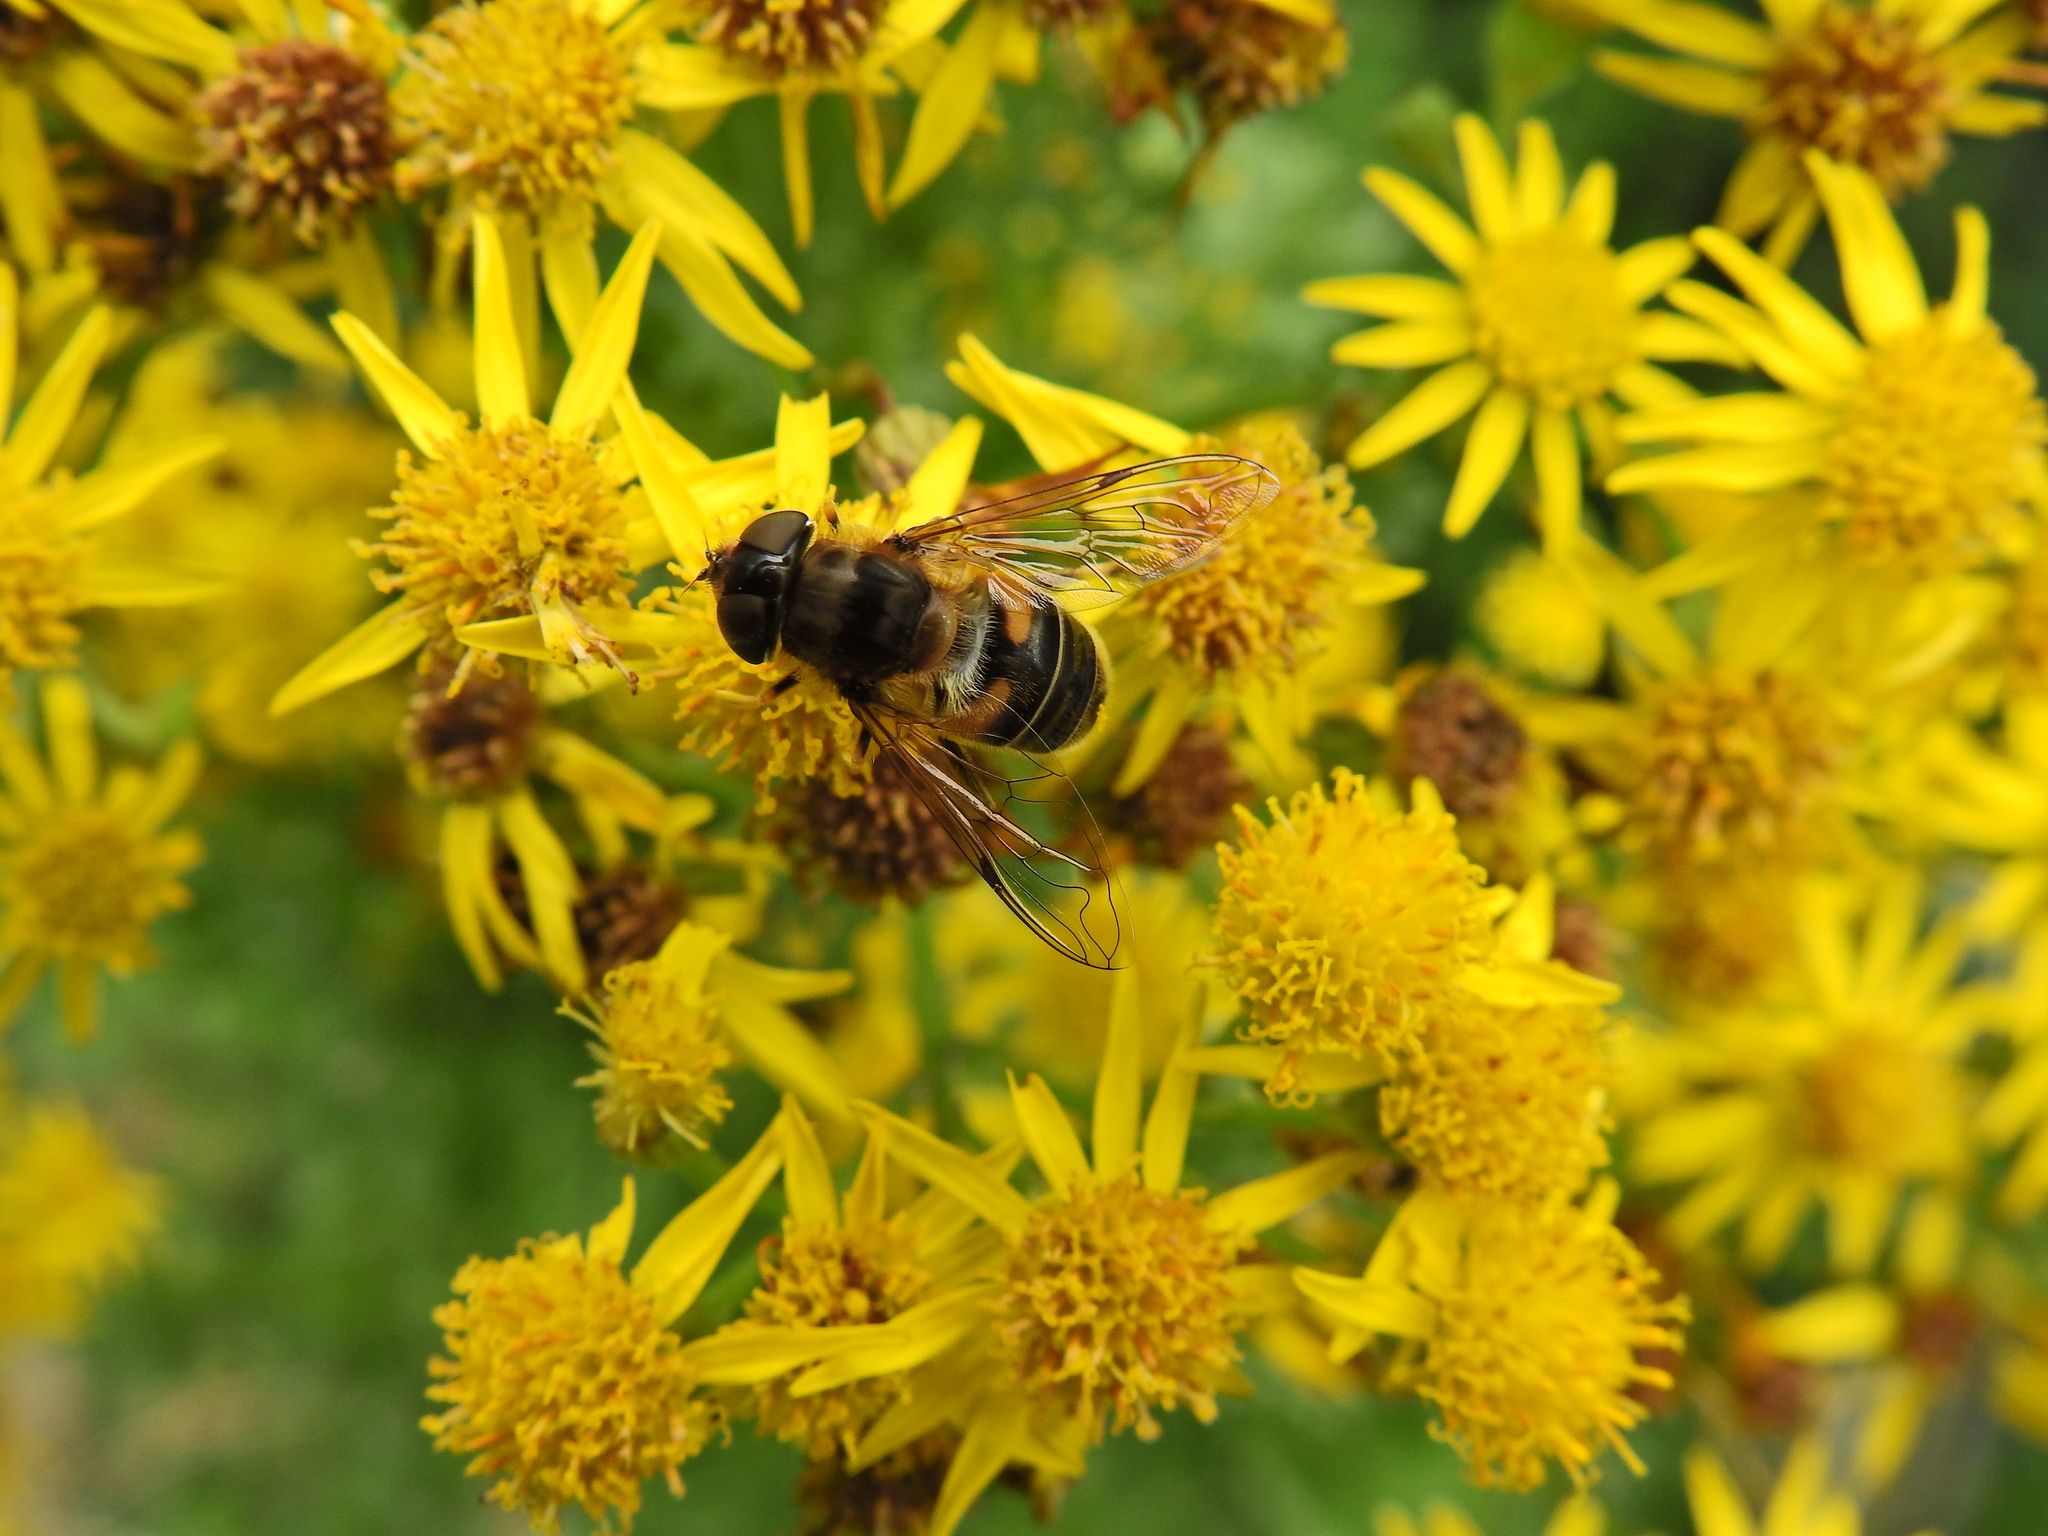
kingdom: Animalia
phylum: Arthropoda
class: Insecta
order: Diptera
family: Syrphidae
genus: Eristalis
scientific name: Eristalis pertinax
